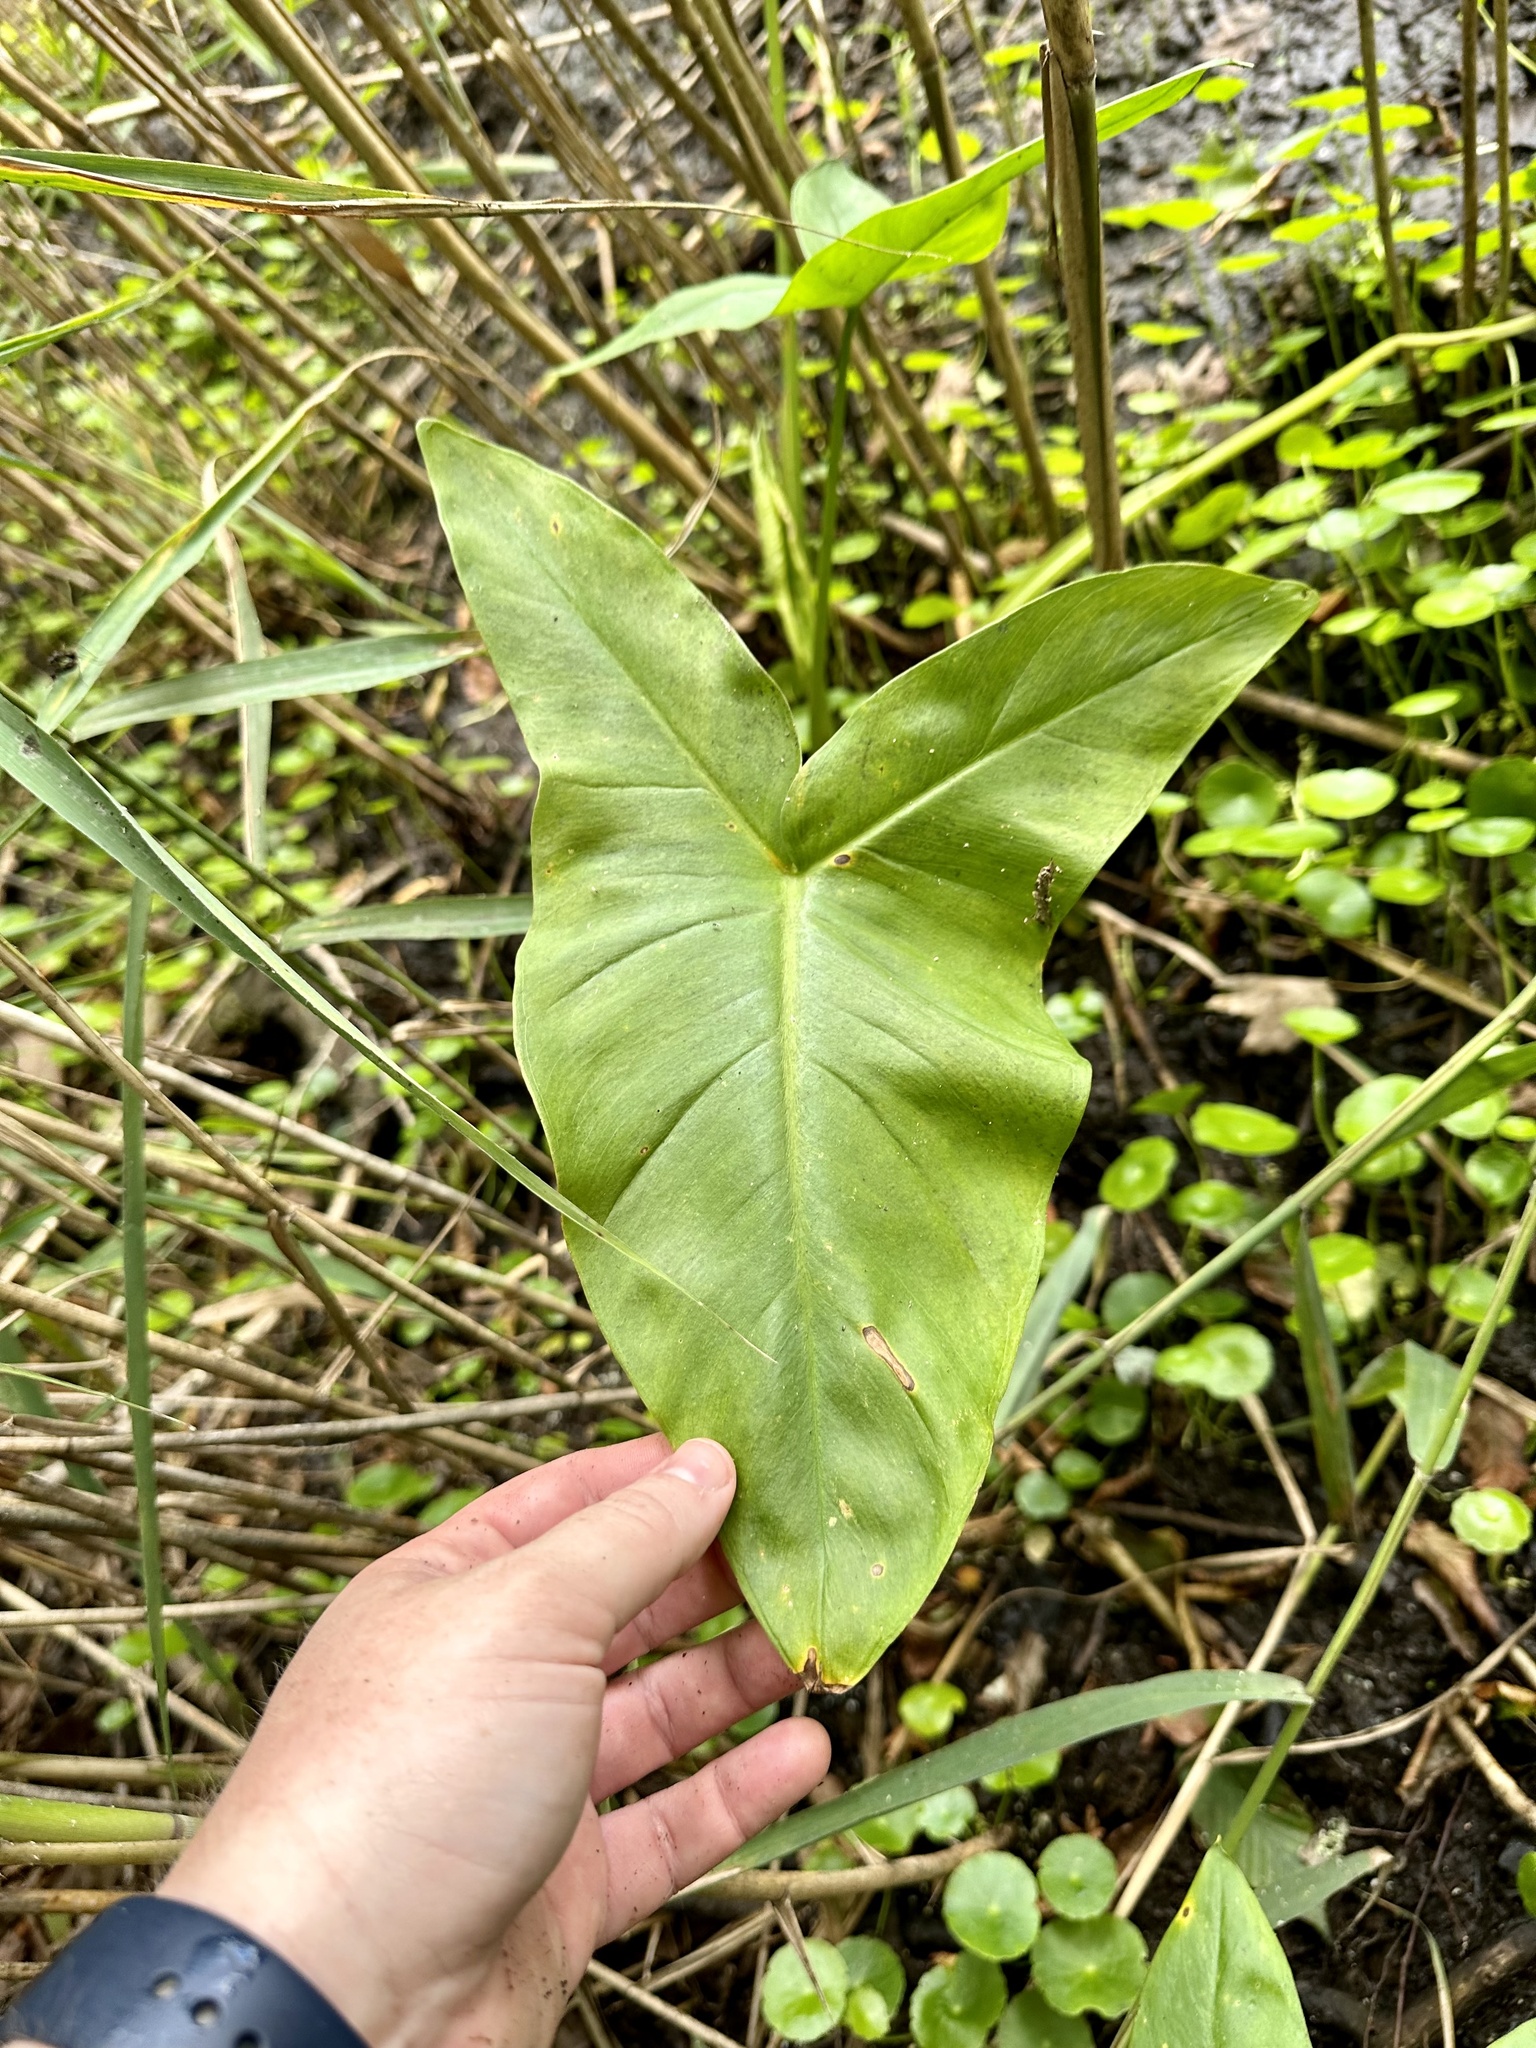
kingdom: Plantae
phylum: Tracheophyta
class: Liliopsida
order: Alismatales
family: Araceae
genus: Peltandra
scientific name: Peltandra virginica
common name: Arrow arum
